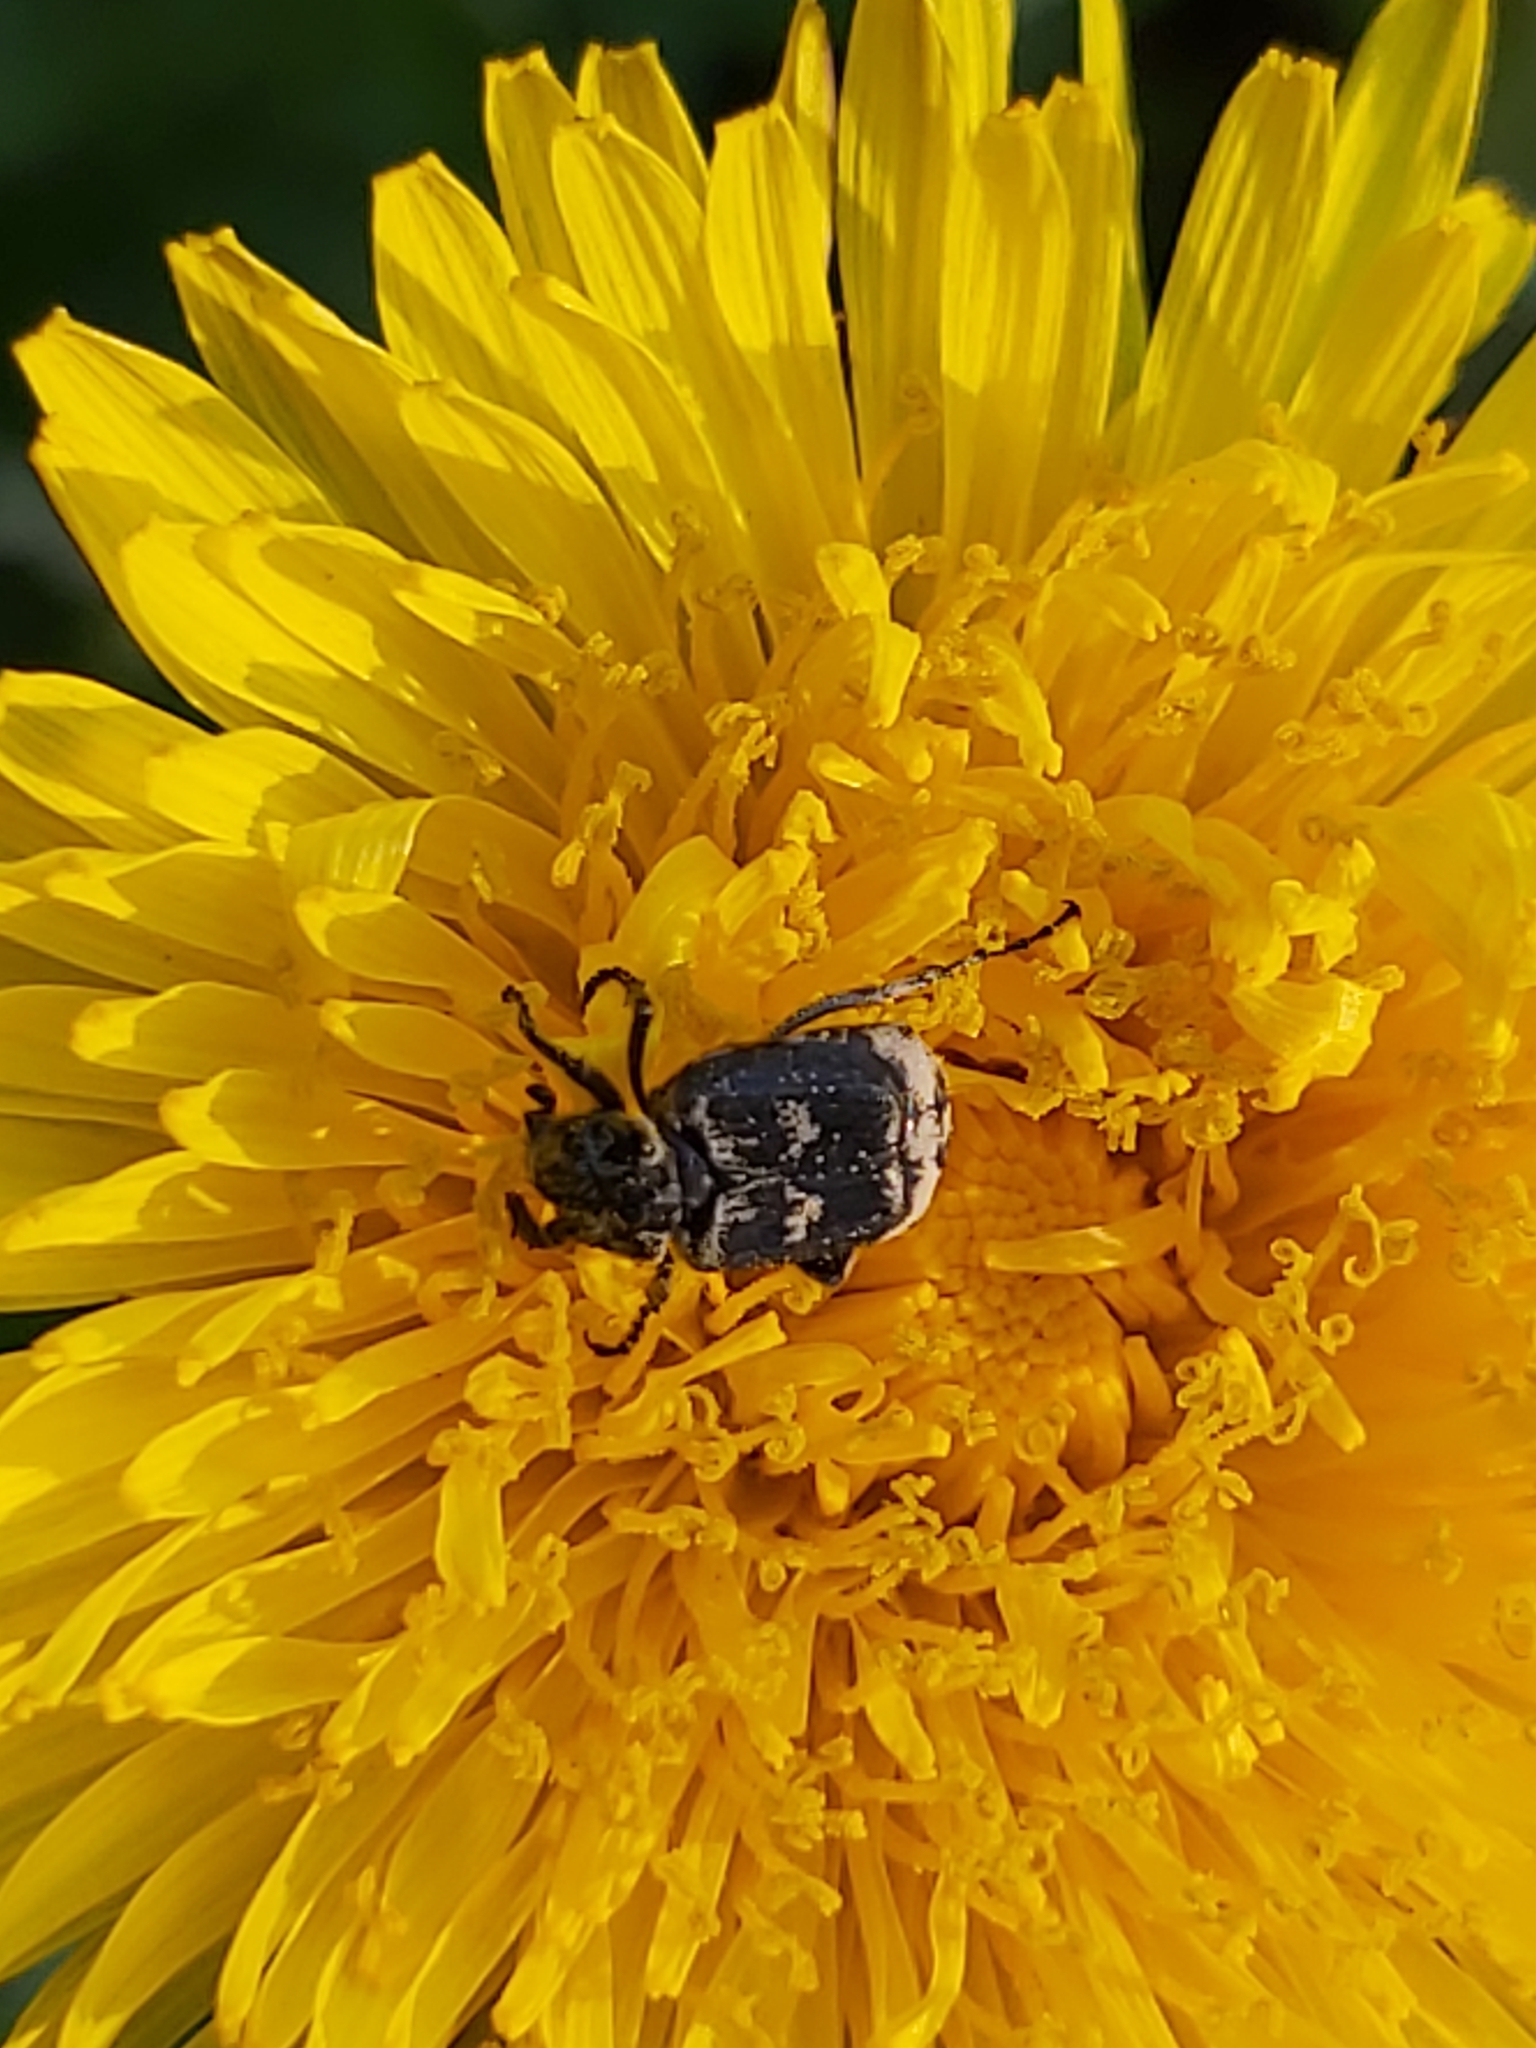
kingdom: Animalia
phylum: Arthropoda
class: Insecta
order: Coleoptera
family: Scarabaeidae
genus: Valgus
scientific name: Valgus hemipterus
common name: Bug flower chafer
